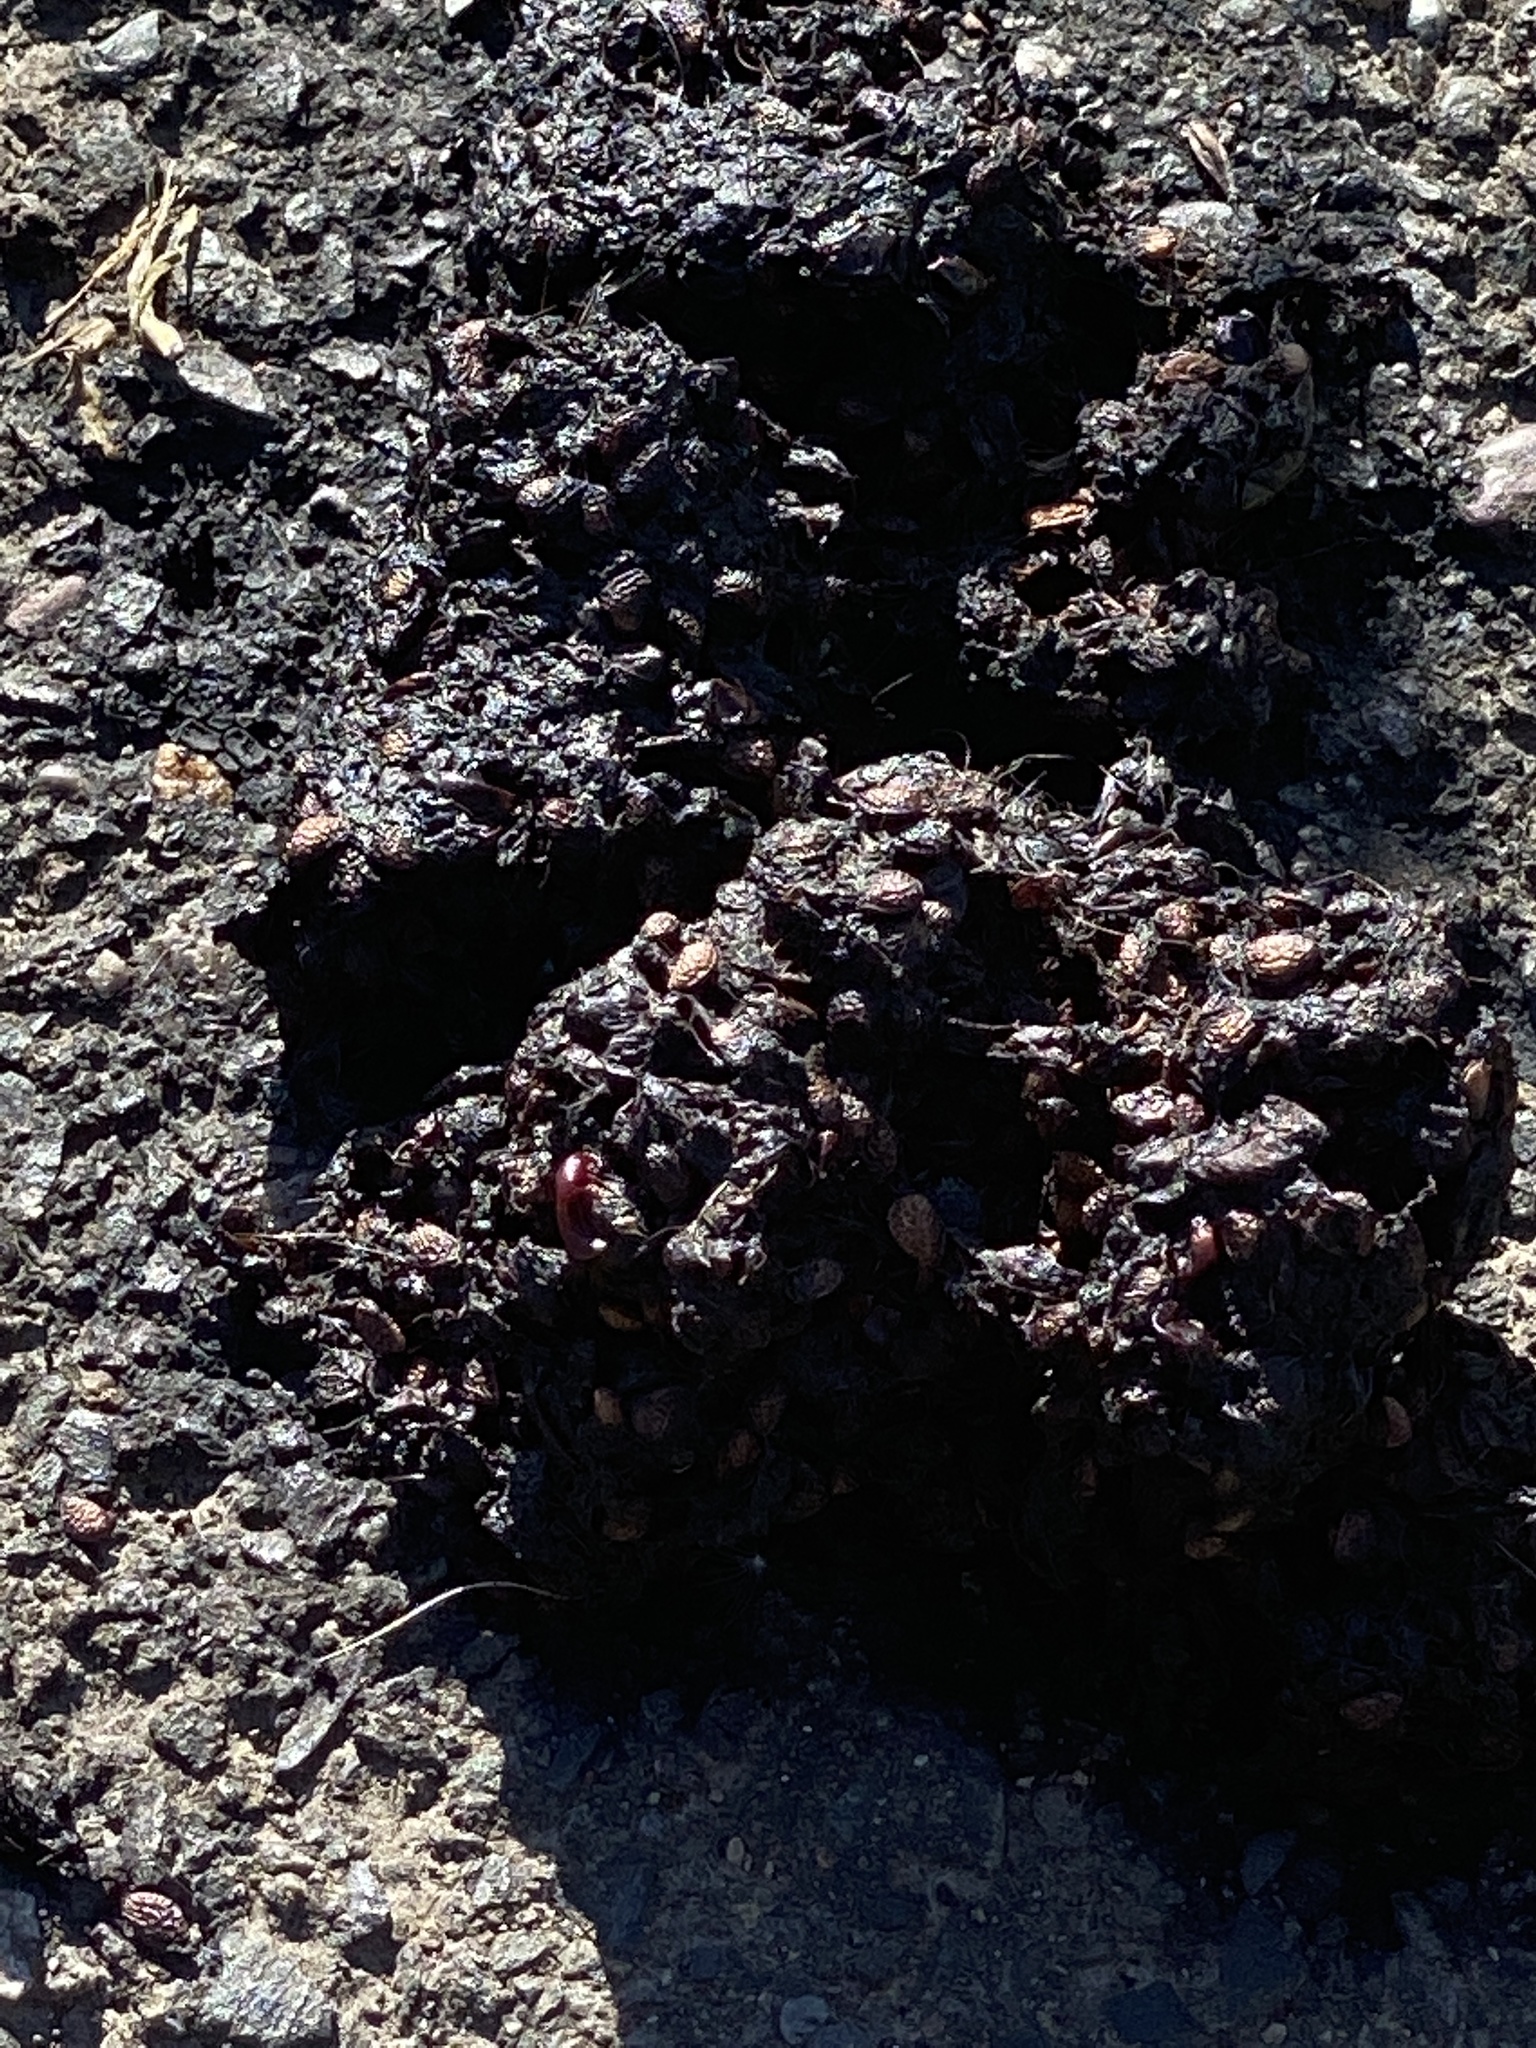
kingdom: Animalia
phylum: Chordata
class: Mammalia
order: Carnivora
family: Procyonidae
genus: Procyon
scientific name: Procyon lotor
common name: Raccoon
